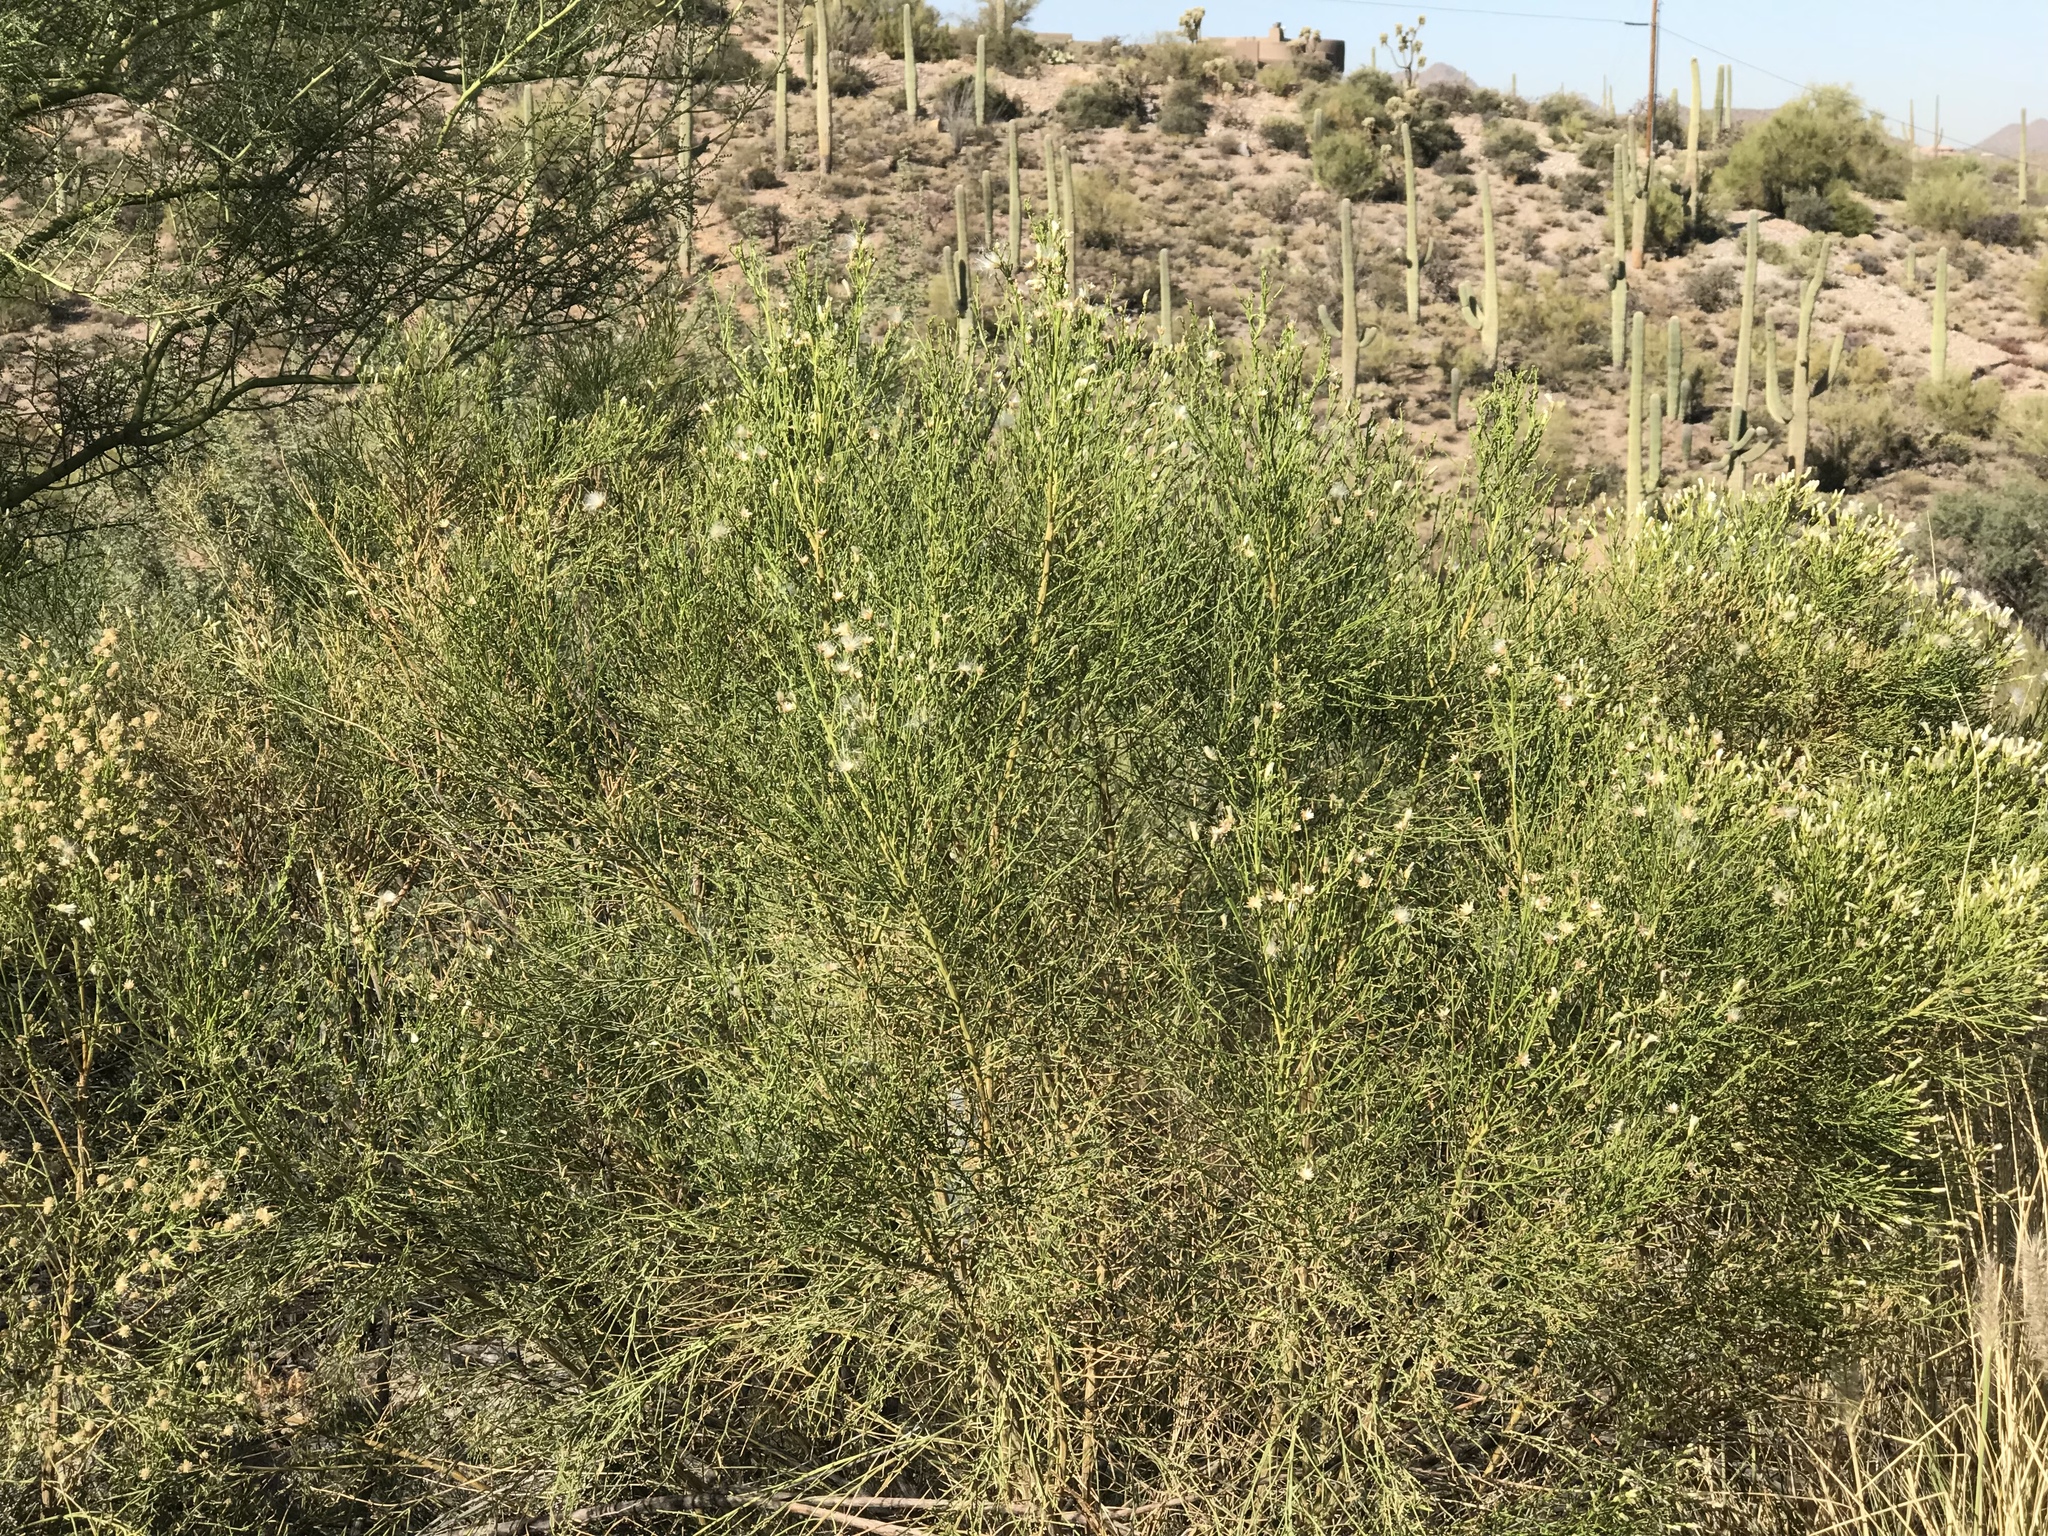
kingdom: Plantae
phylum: Tracheophyta
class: Magnoliopsida
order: Asterales
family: Asteraceae
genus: Baccharis
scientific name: Baccharis sarothroides
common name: Desert-broom
